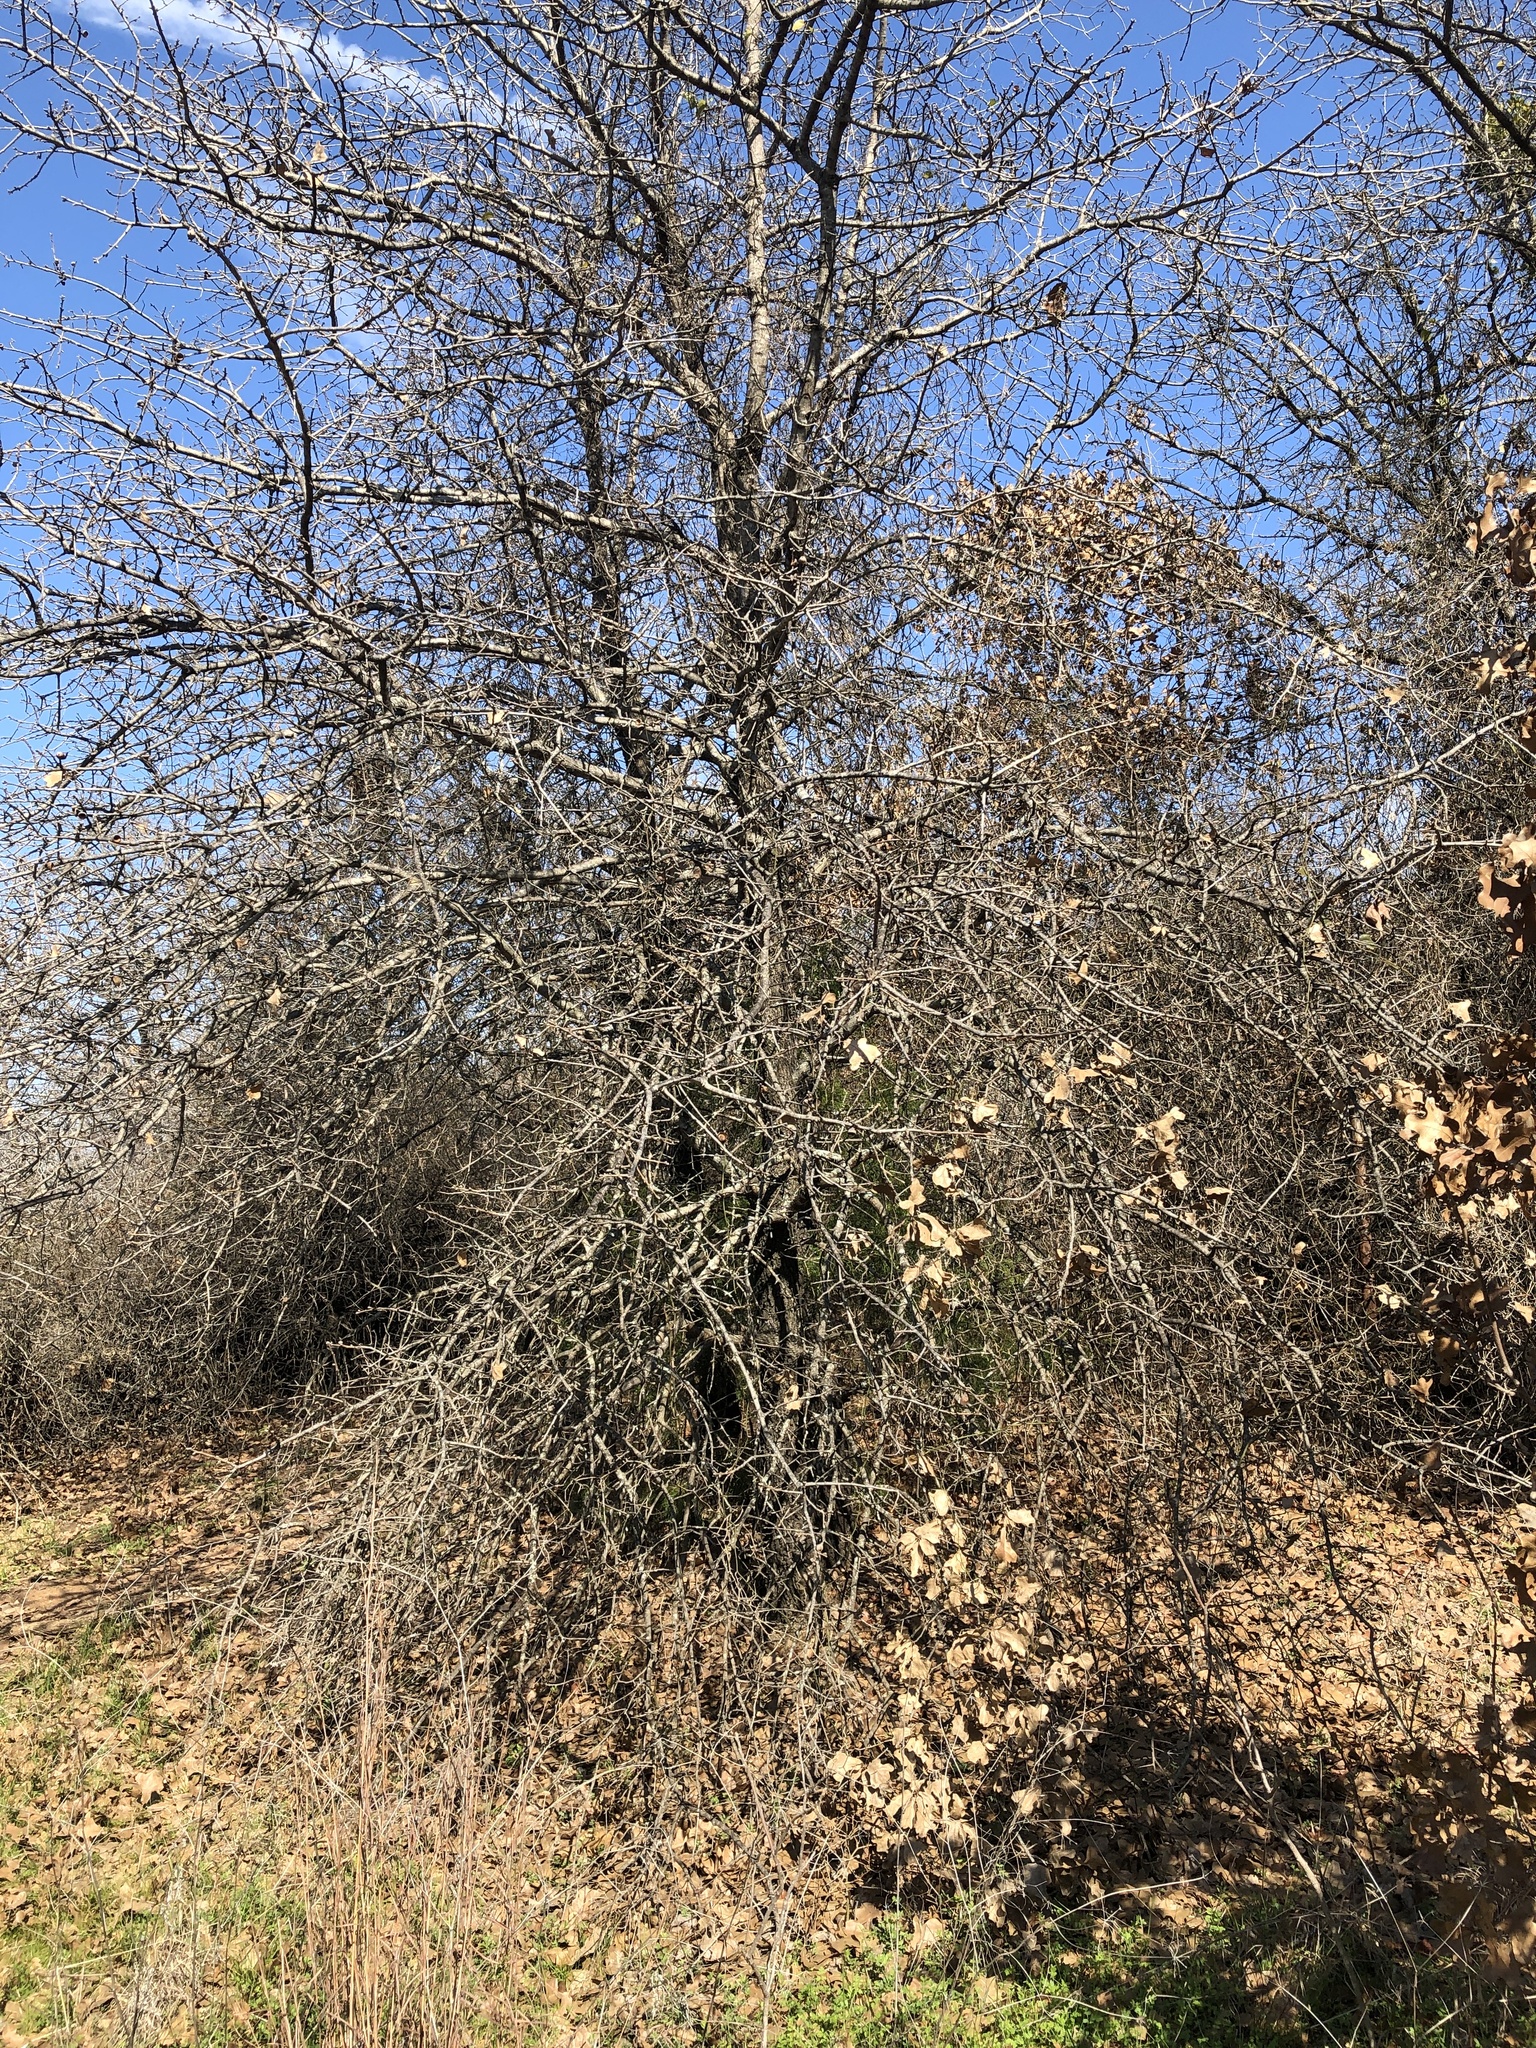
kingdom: Plantae
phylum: Tracheophyta
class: Magnoliopsida
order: Fagales
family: Fagaceae
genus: Quercus
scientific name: Quercus marilandica
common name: Blackjack oak
